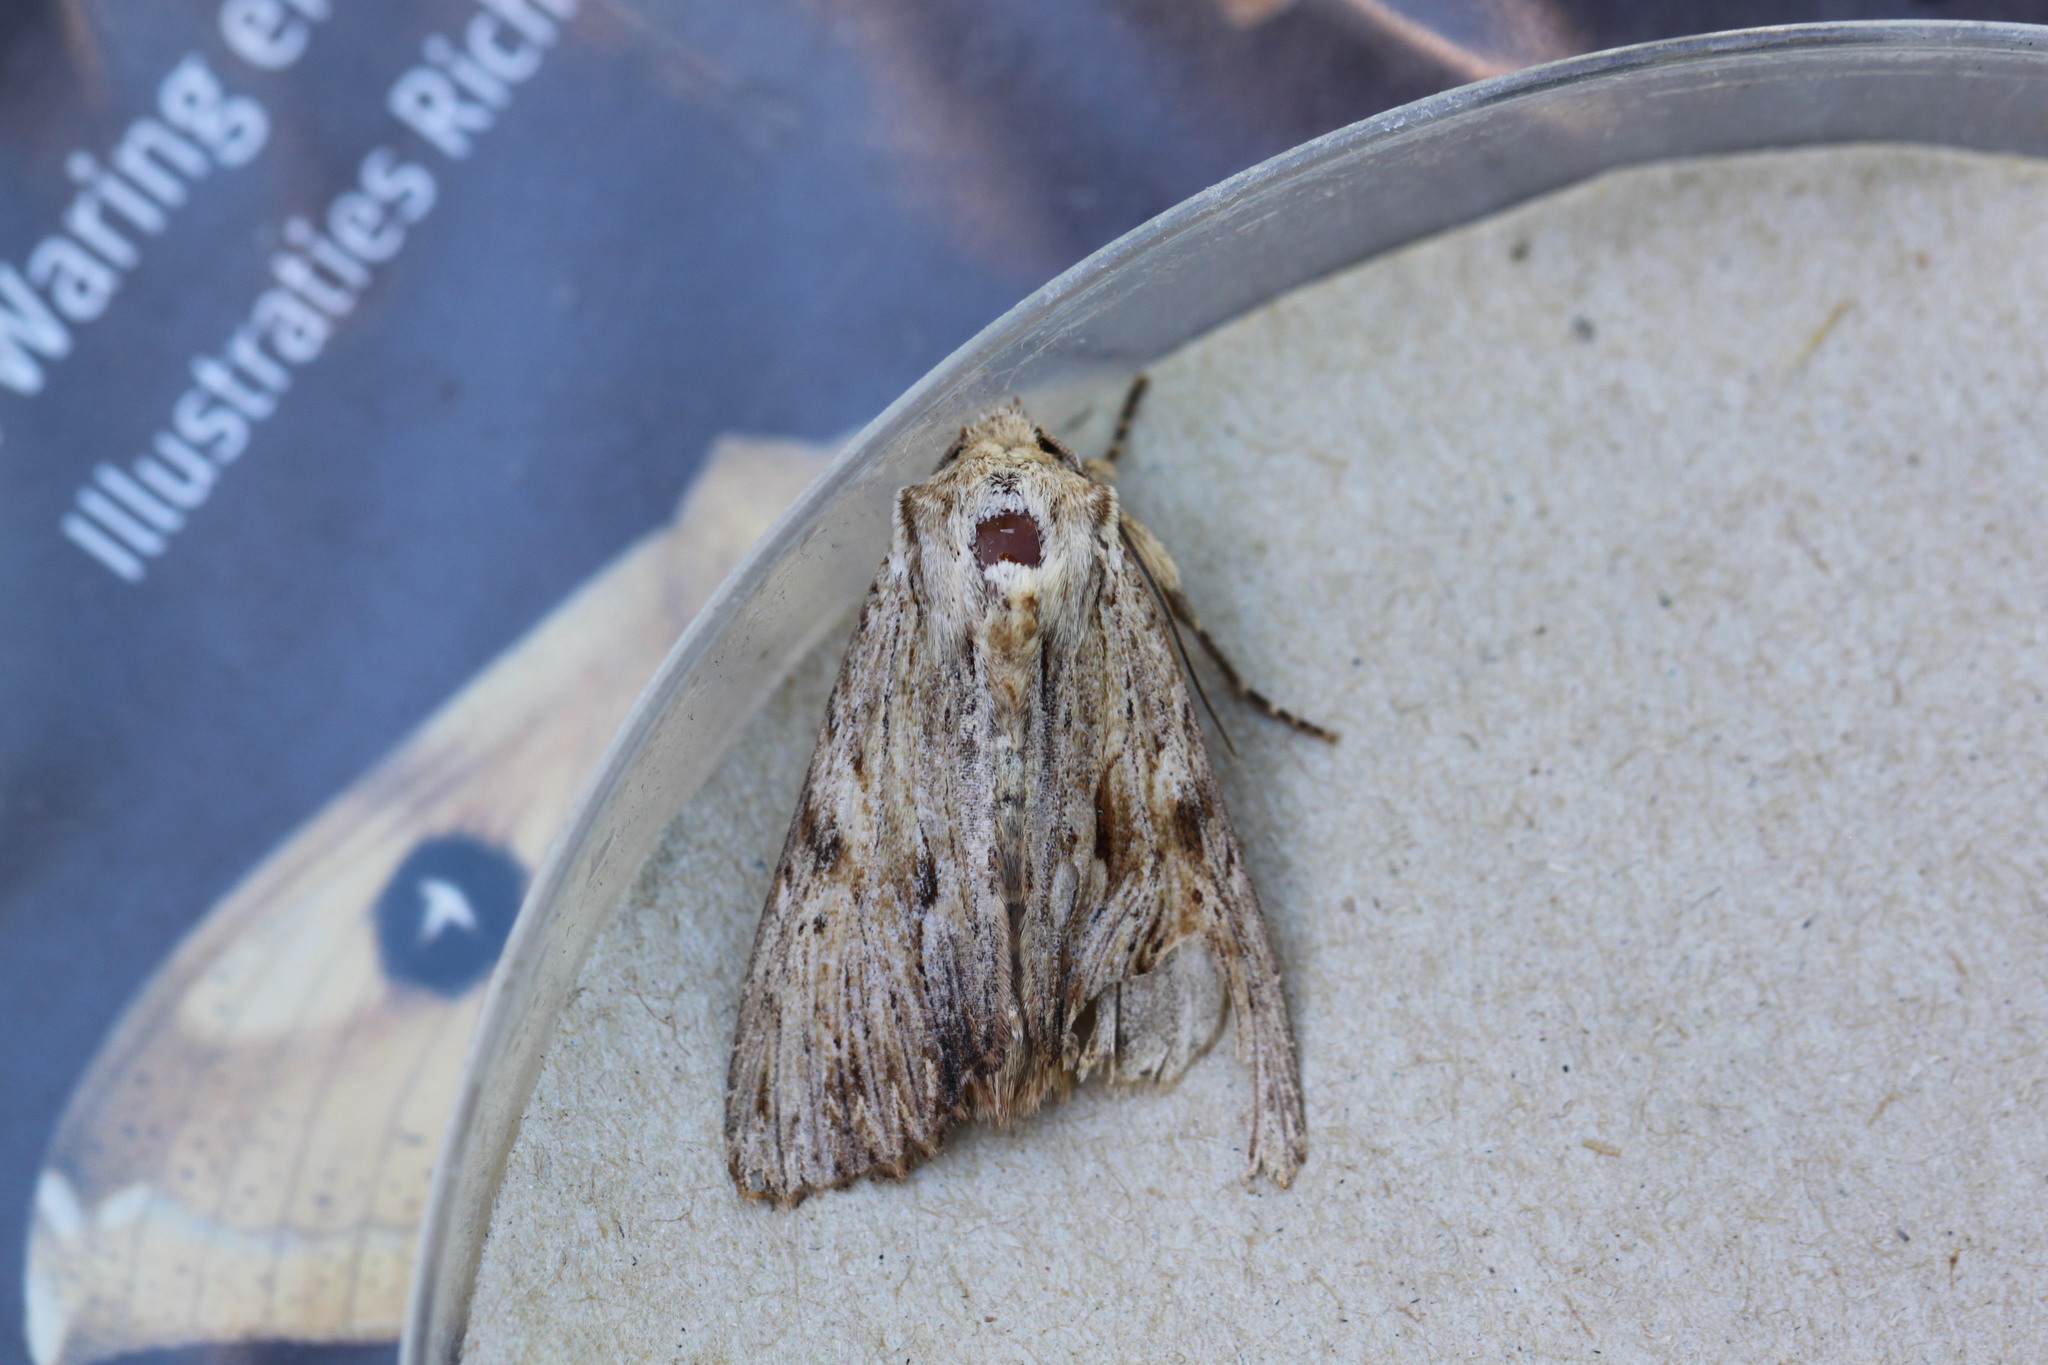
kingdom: Animalia
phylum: Arthropoda
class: Insecta
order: Lepidoptera
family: Noctuidae
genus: Apamea
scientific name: Apamea lithoxylaea
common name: Light arches
